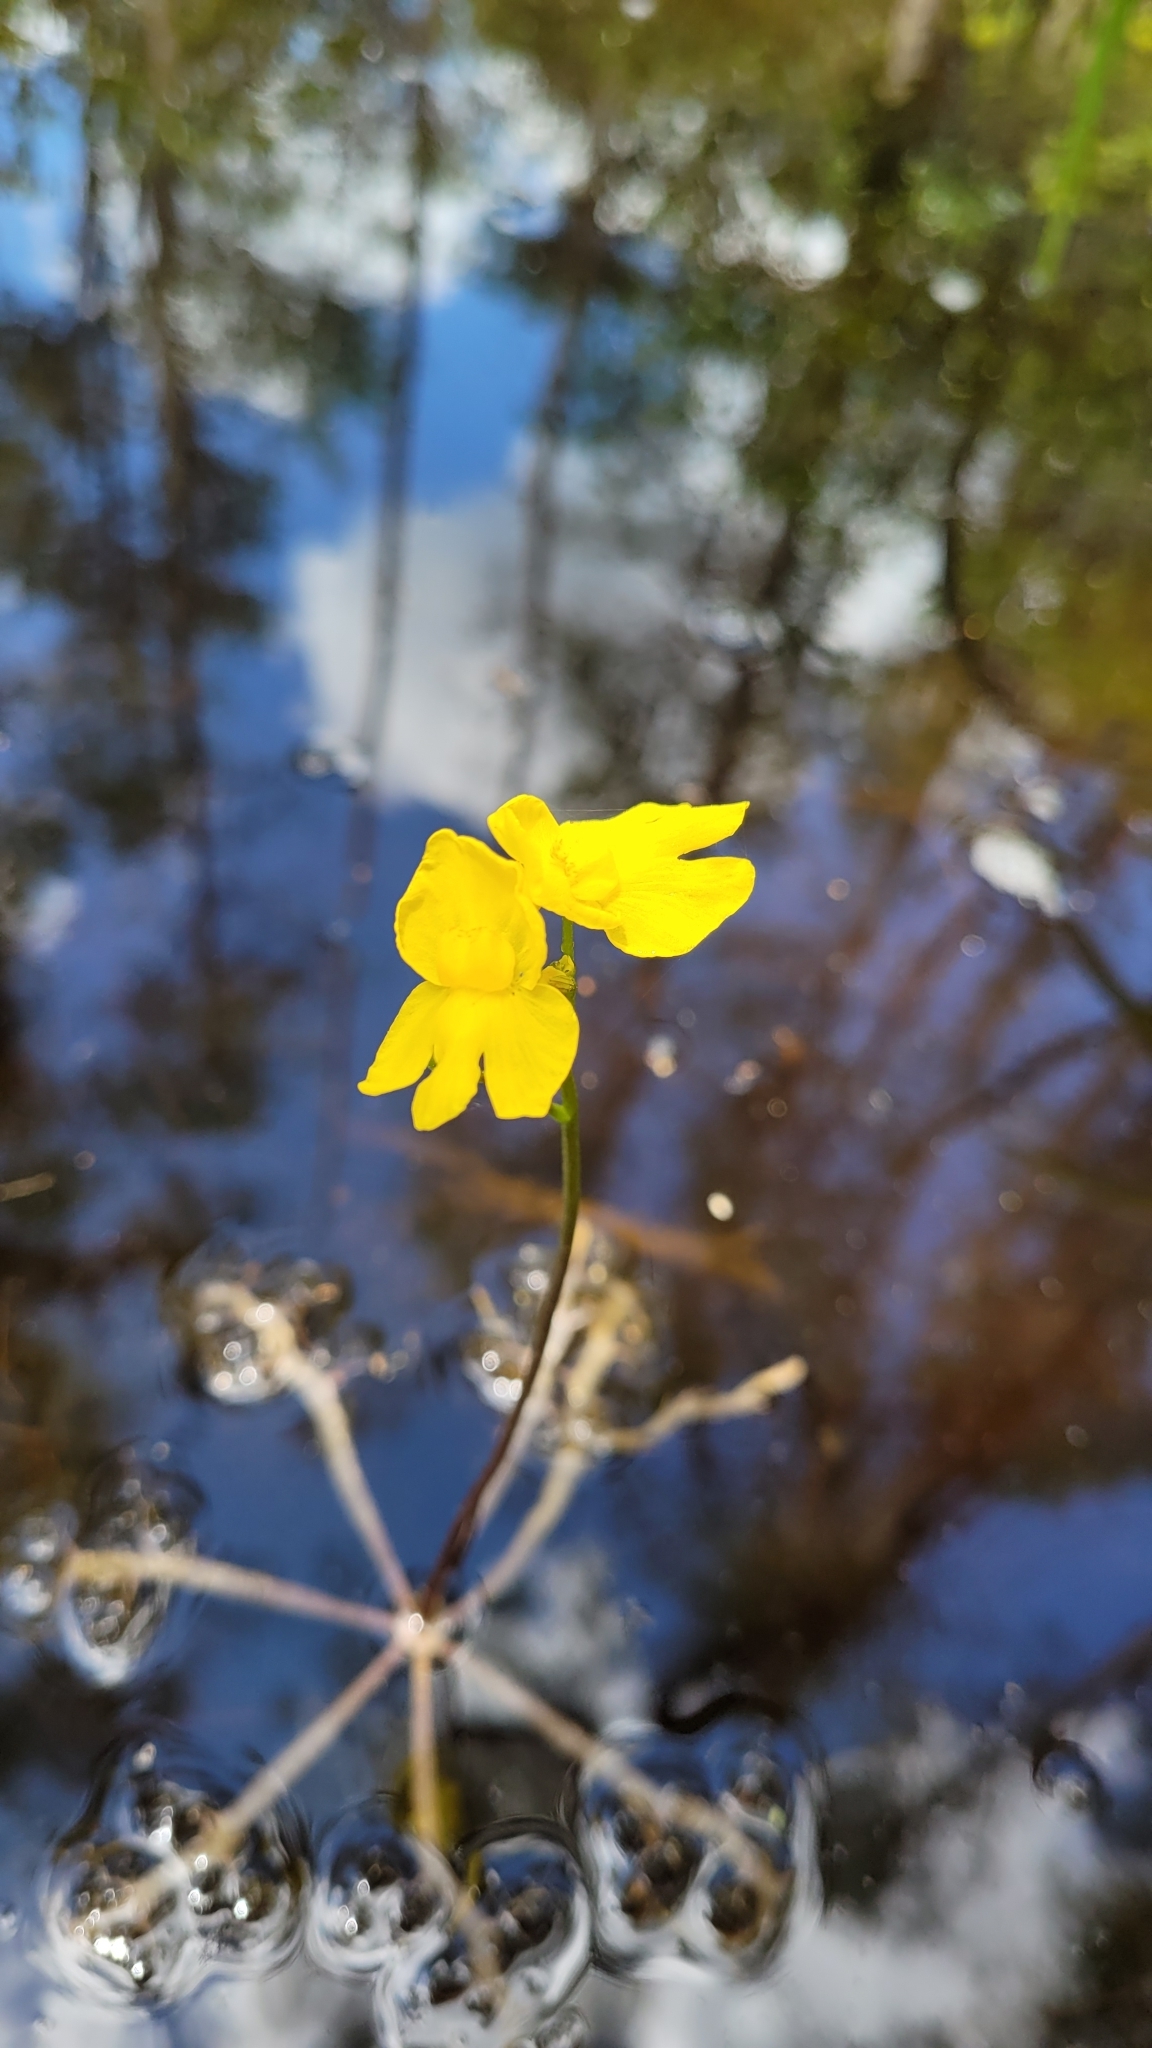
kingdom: Plantae
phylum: Tracheophyta
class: Magnoliopsida
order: Lamiales
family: Lentibulariaceae
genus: Utricularia
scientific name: Utricularia inflata
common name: Floating bladderwort
